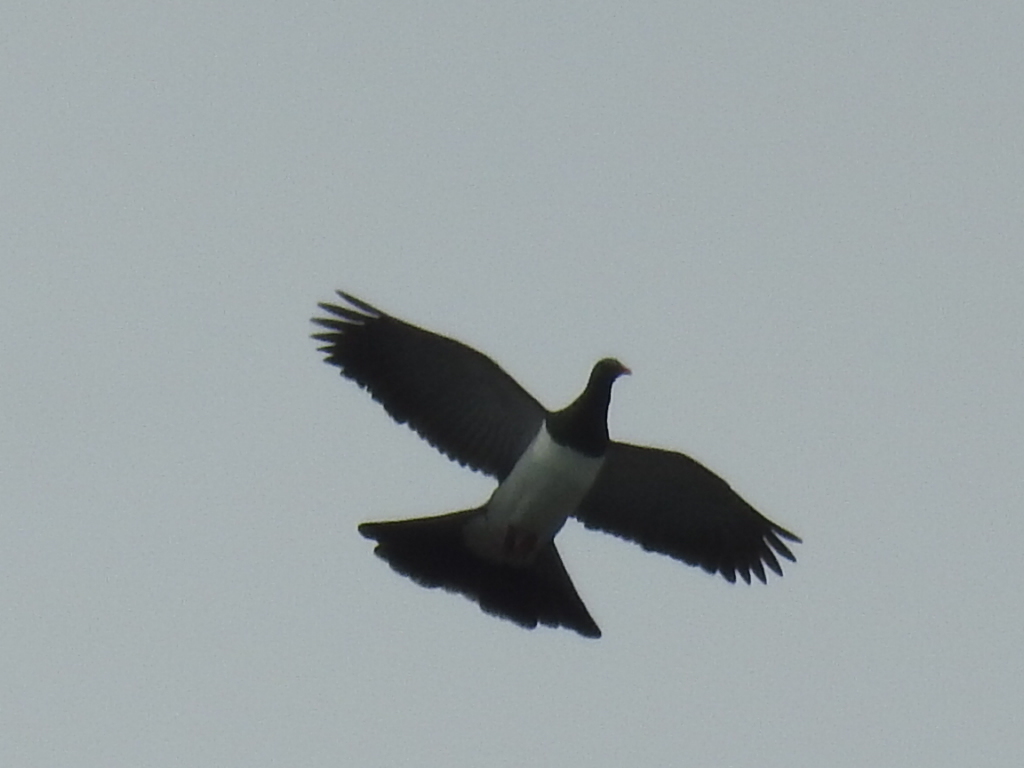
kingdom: Animalia
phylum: Chordata
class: Aves
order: Columbiformes
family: Columbidae
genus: Hemiphaga
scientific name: Hemiphaga novaeseelandiae
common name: New zealand pigeon
